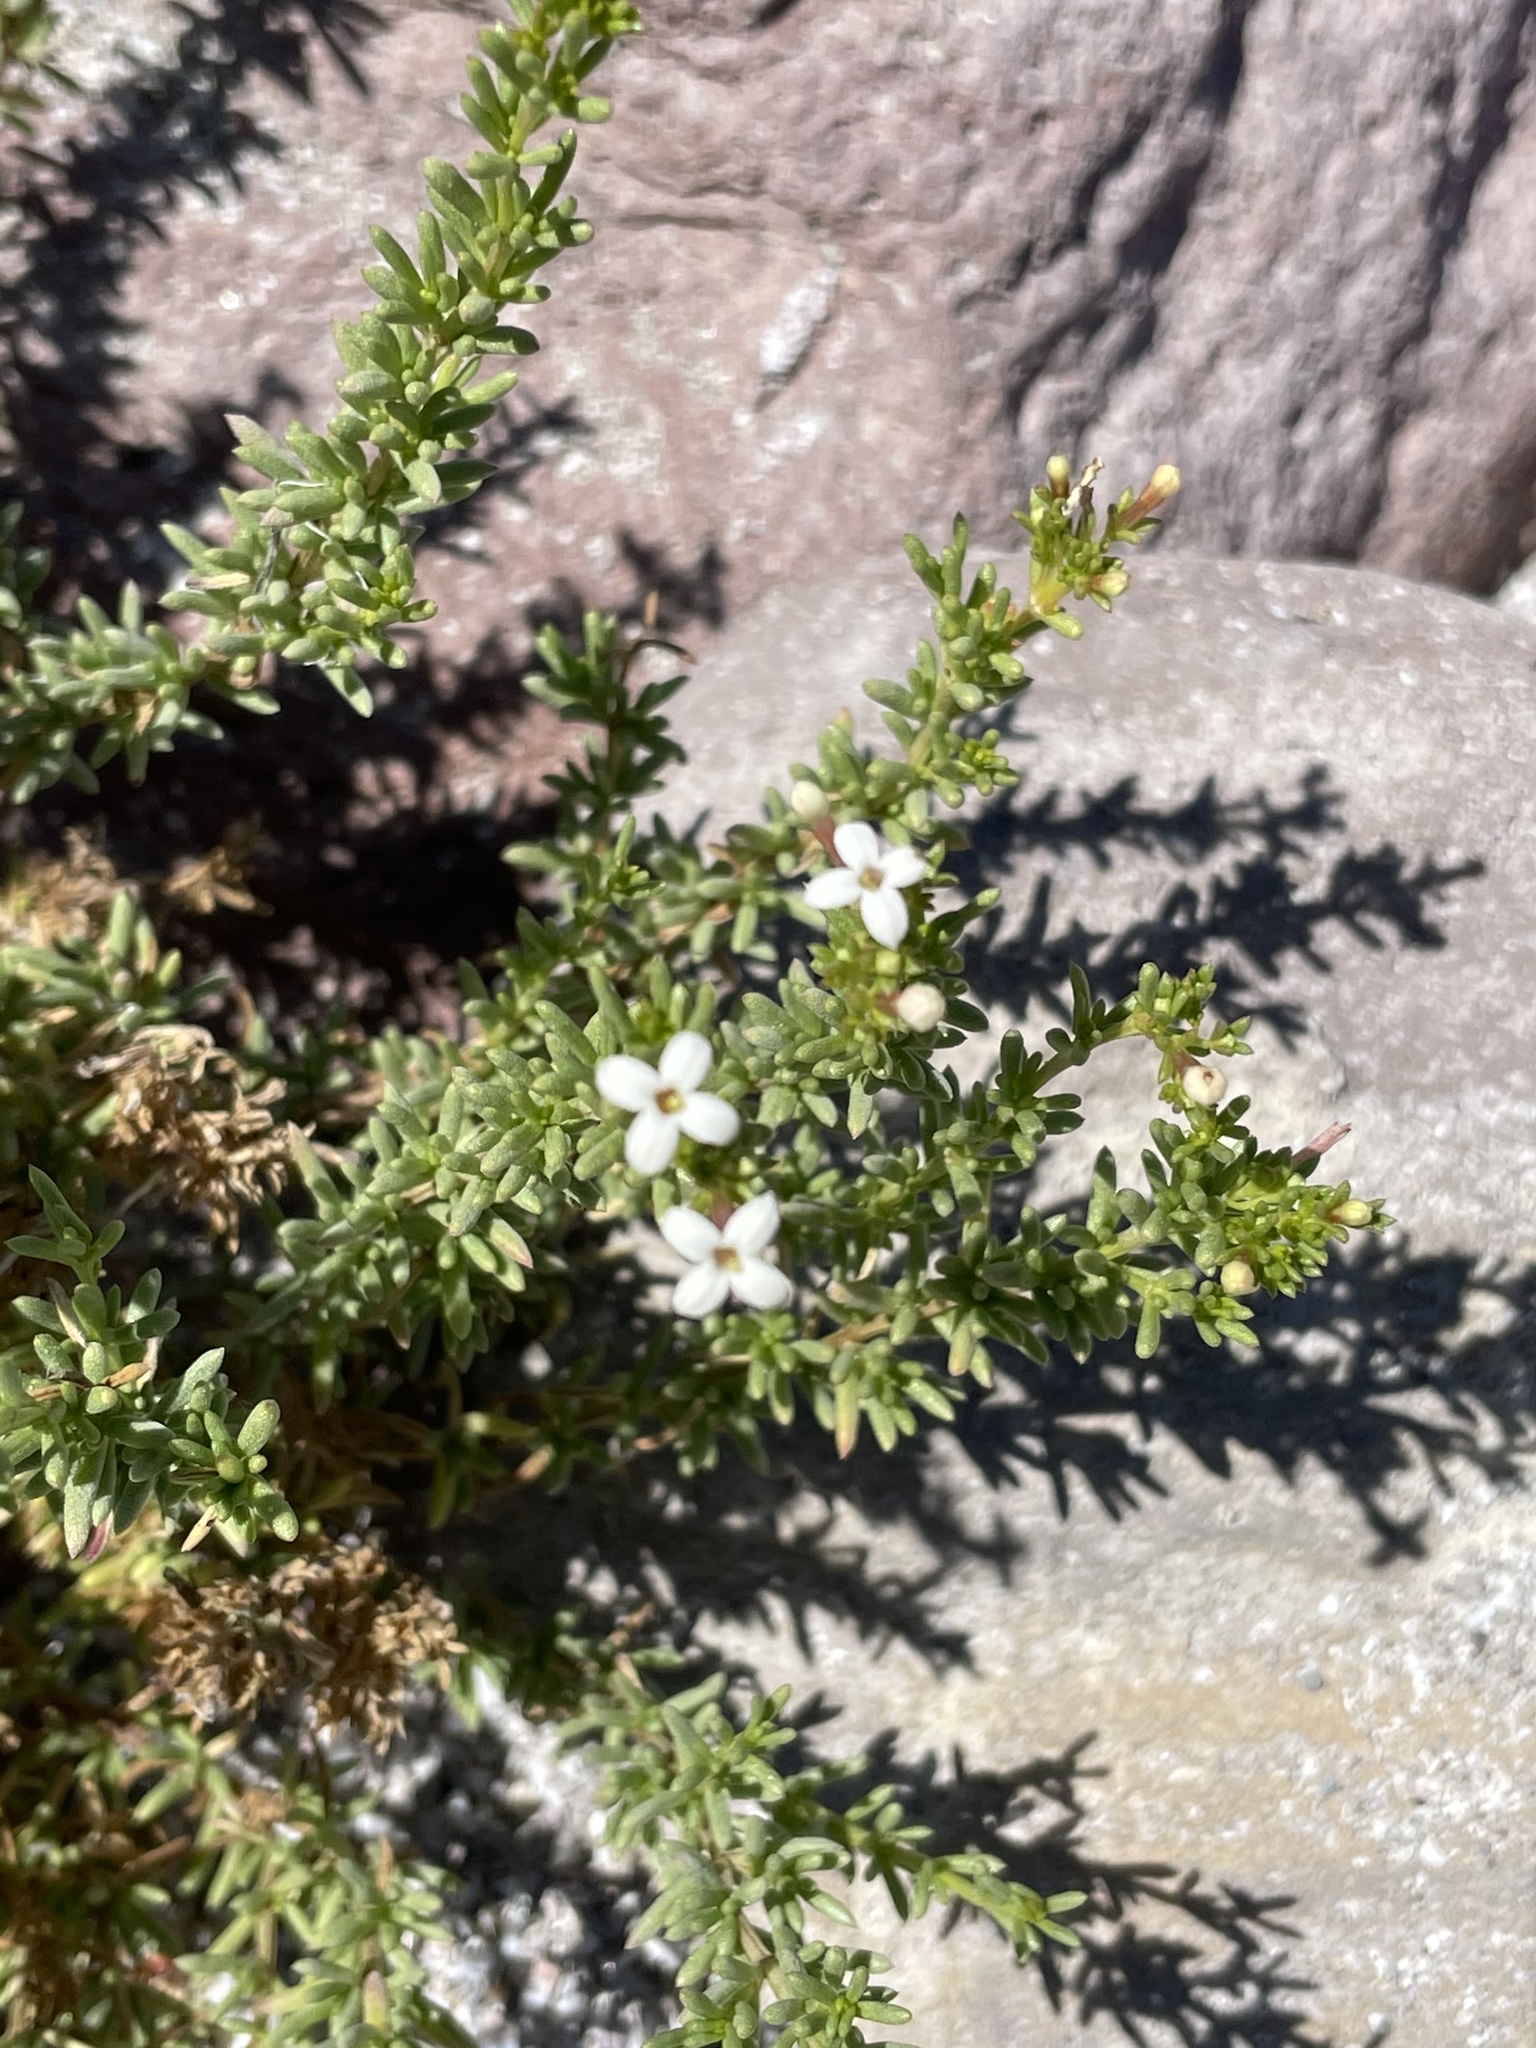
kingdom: Plantae
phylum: Tracheophyta
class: Magnoliopsida
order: Gentianales
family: Rubiaceae
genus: Stenotis
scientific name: Stenotis mucronata
